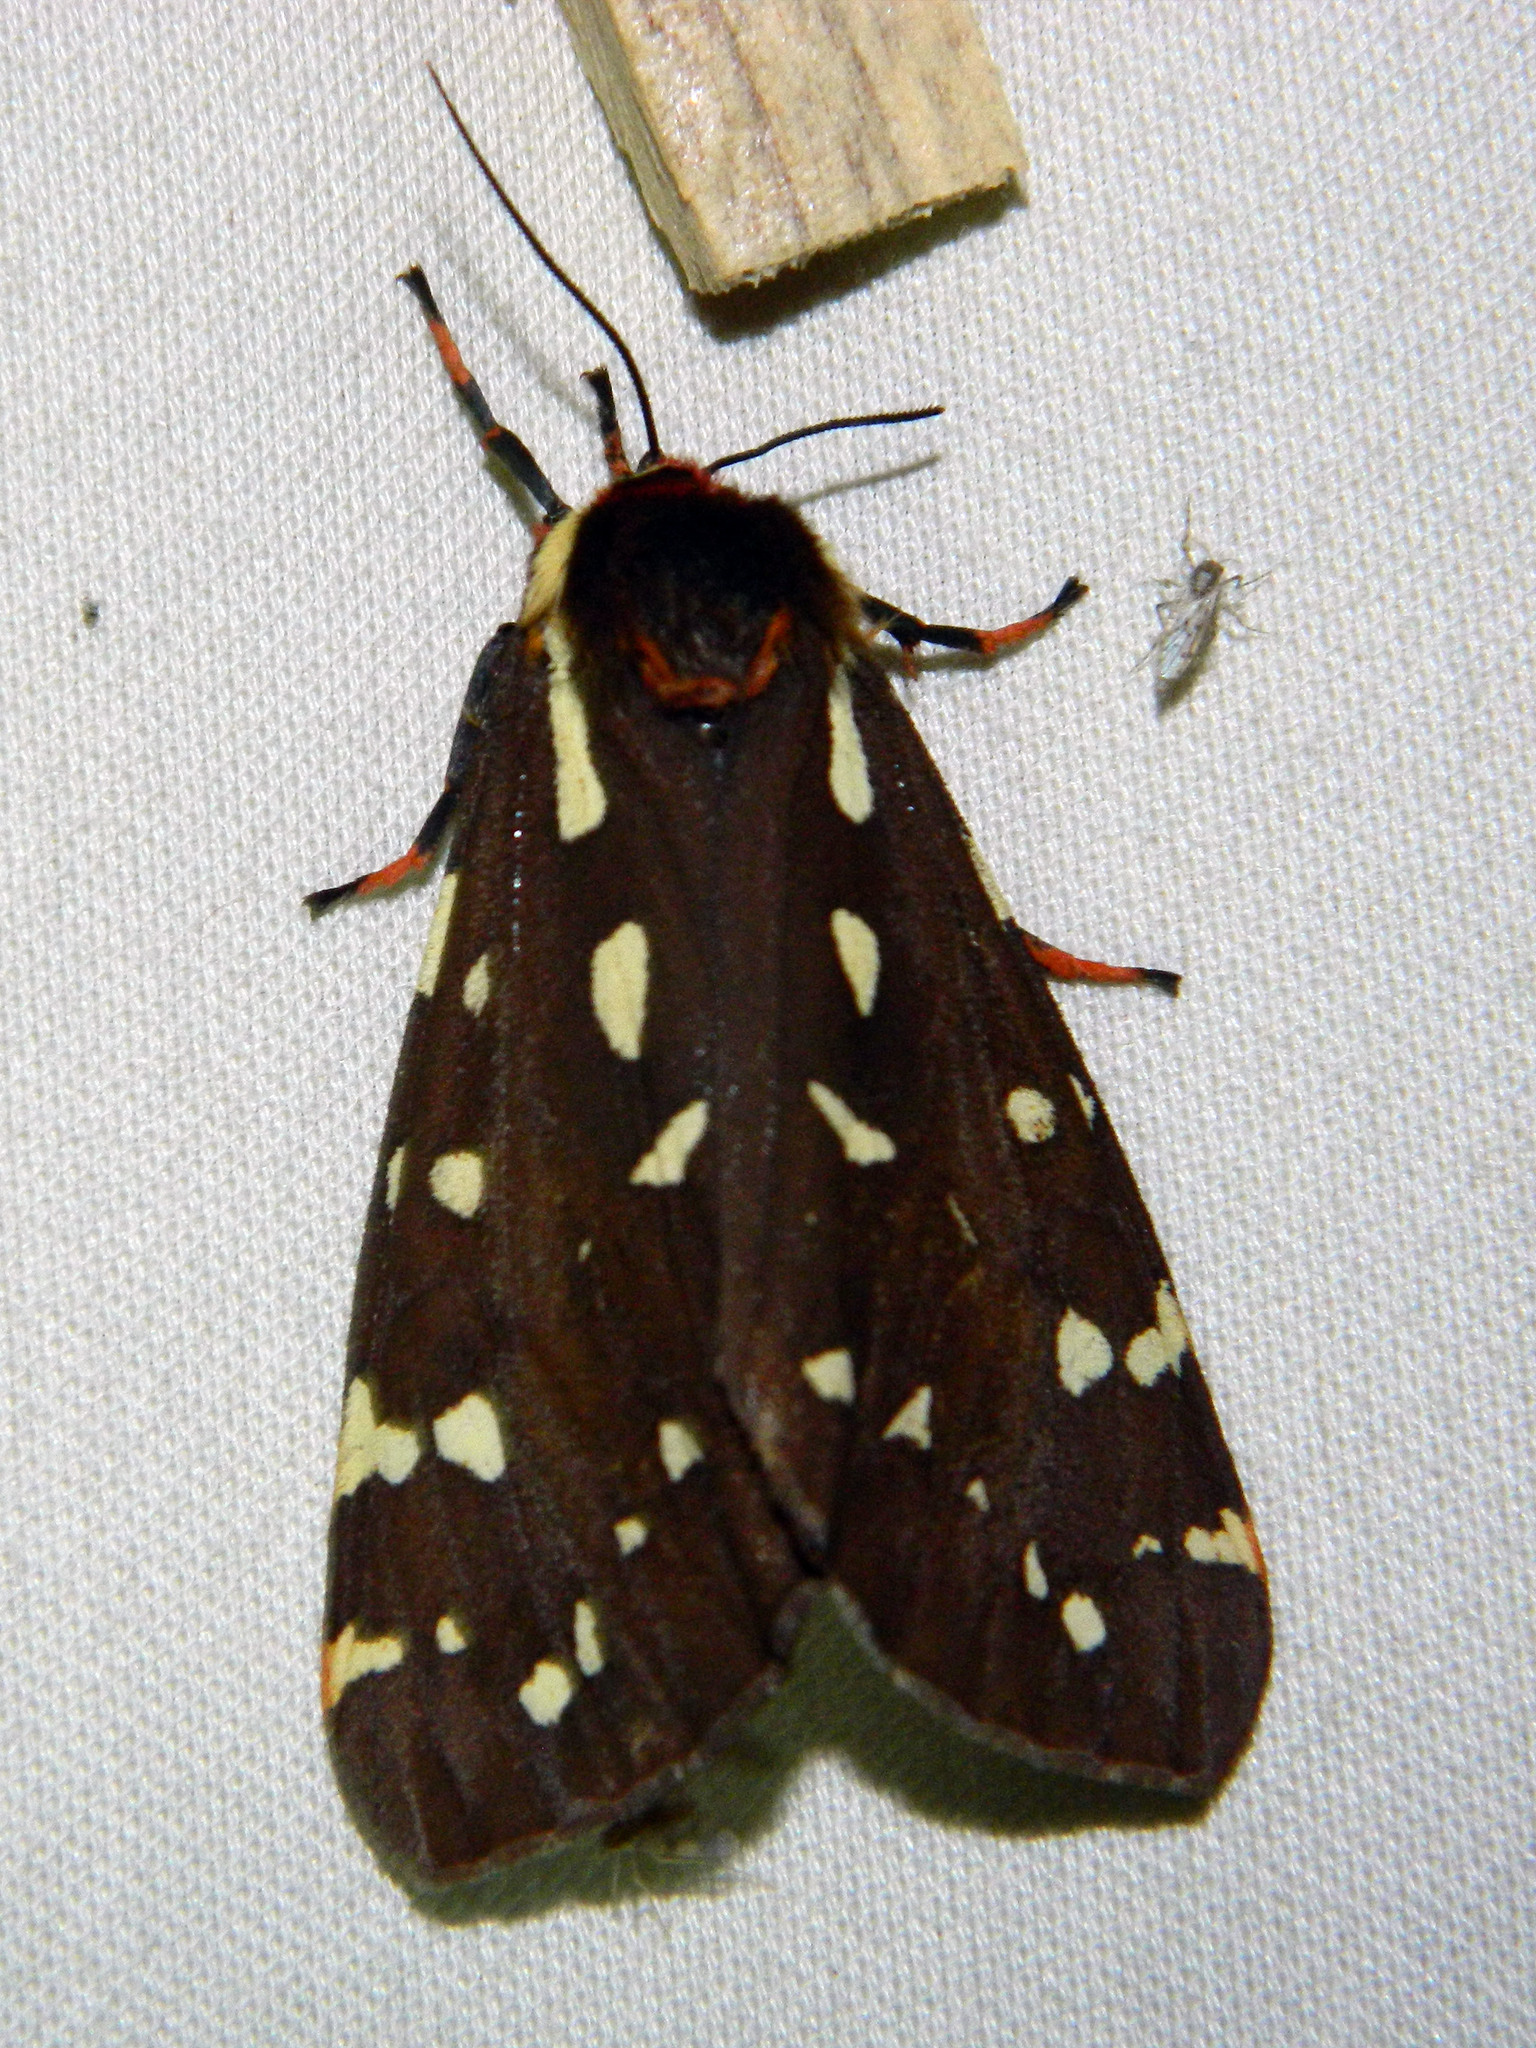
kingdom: Animalia
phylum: Arthropoda
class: Insecta
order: Lepidoptera
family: Erebidae
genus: Arctia
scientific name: Arctia parthenos
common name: St. lawrence tiger moth
